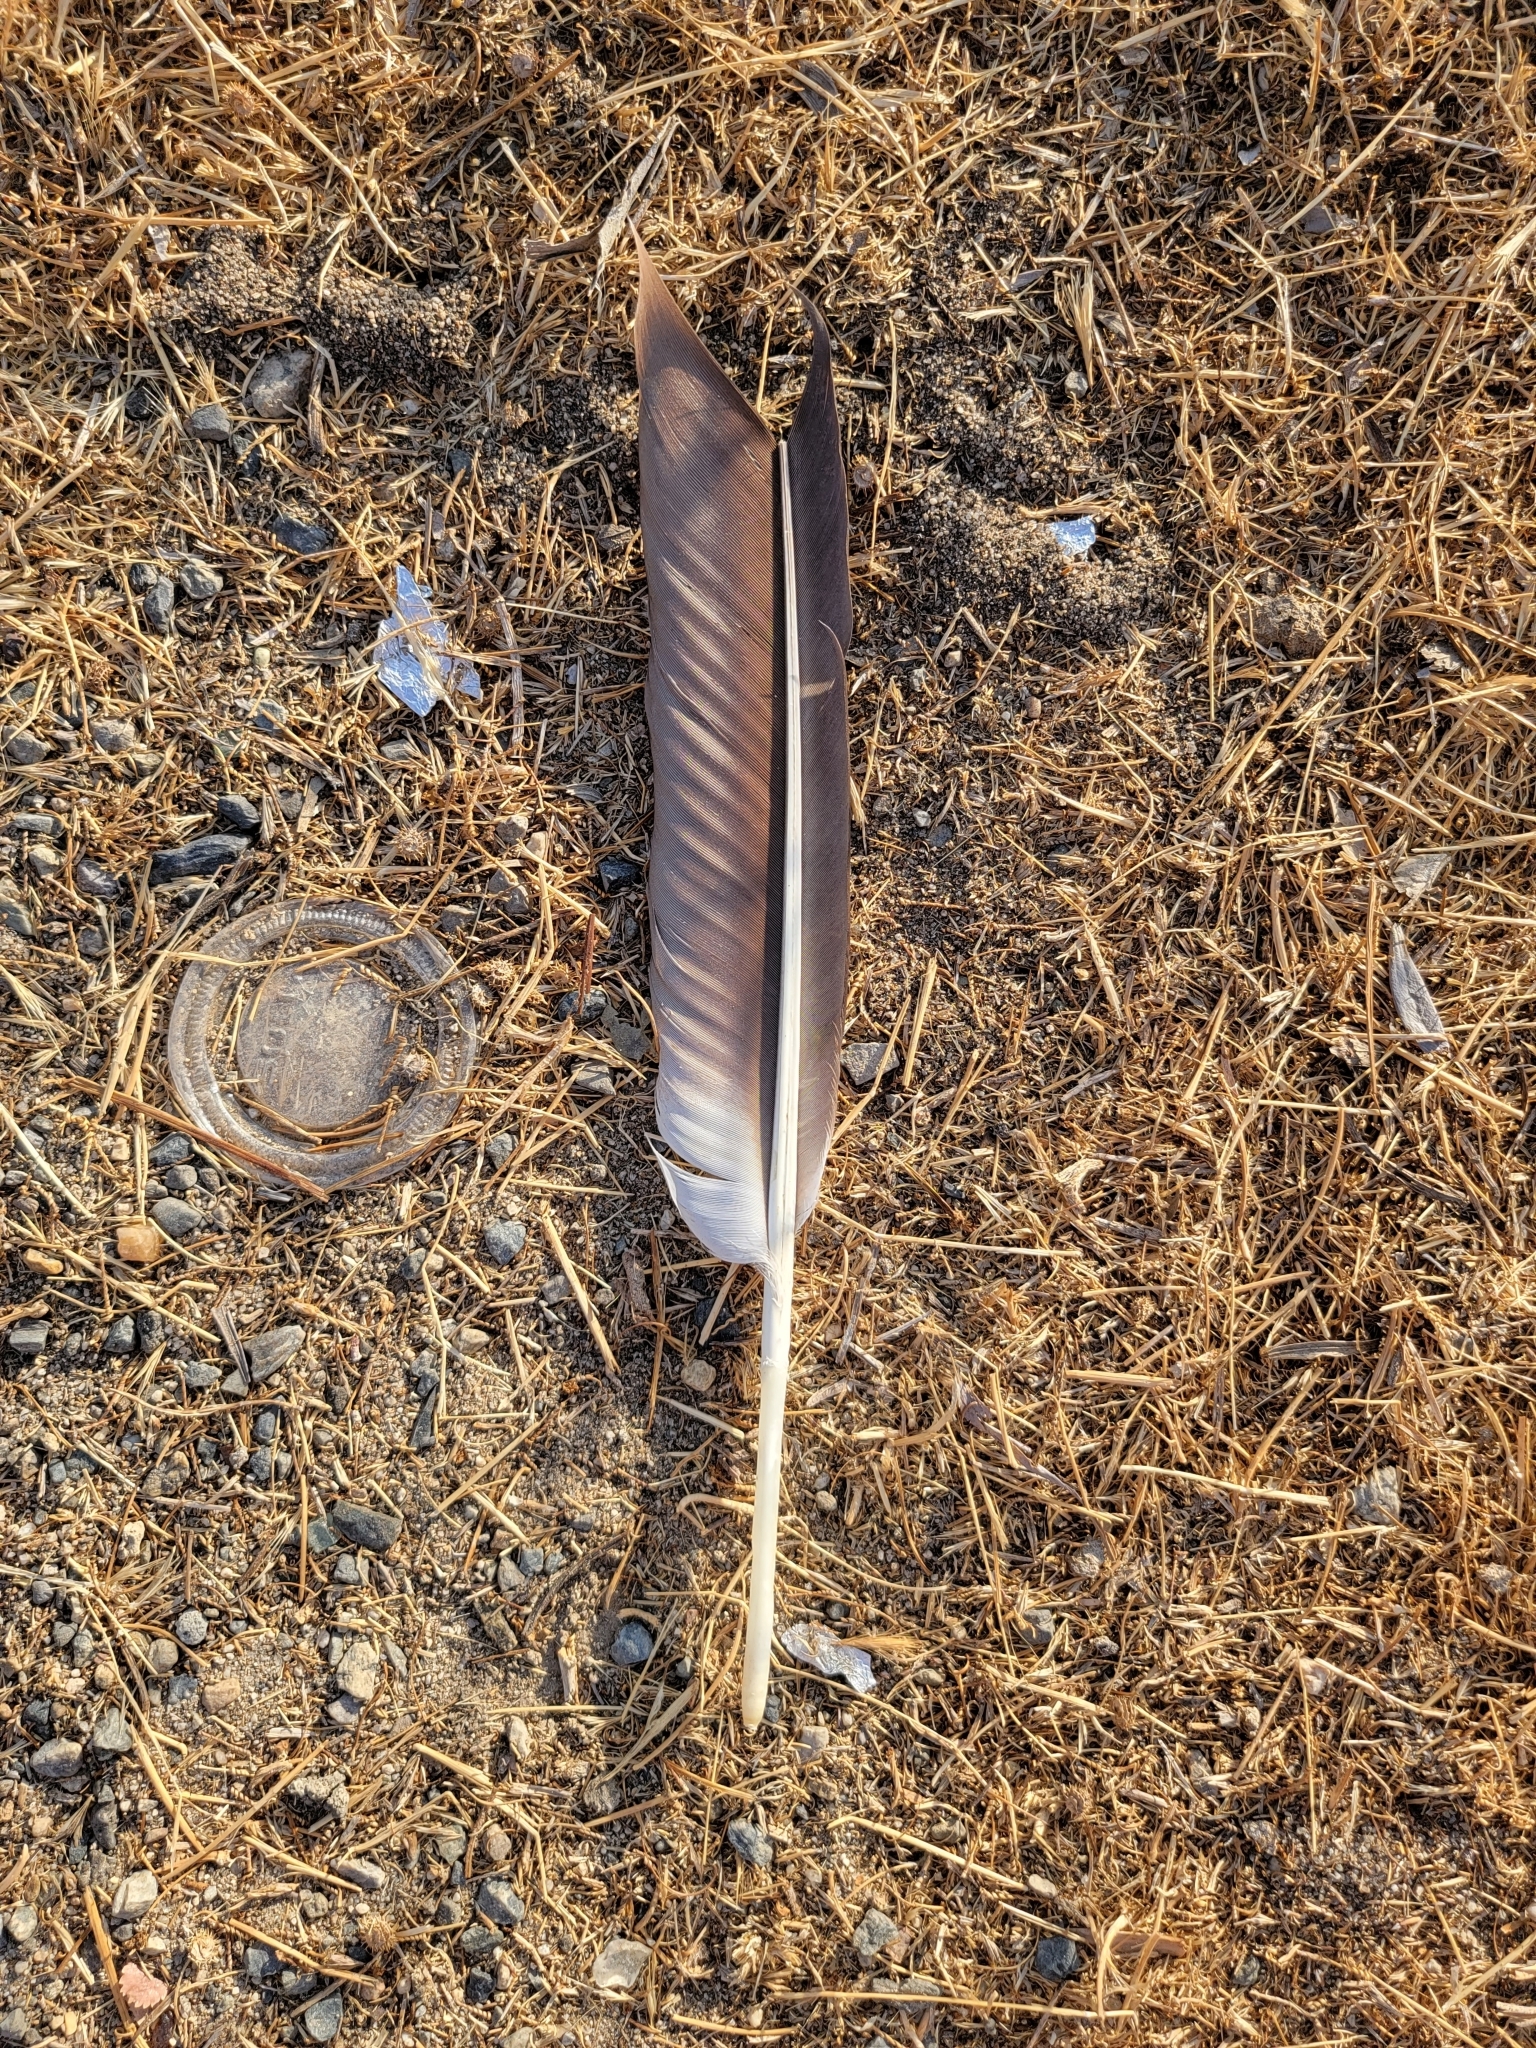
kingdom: Animalia
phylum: Chordata
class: Aves
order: Pelecaniformes
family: Pelecanidae
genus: Pelecanus
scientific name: Pelecanus erythrorhynchos
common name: American white pelican
